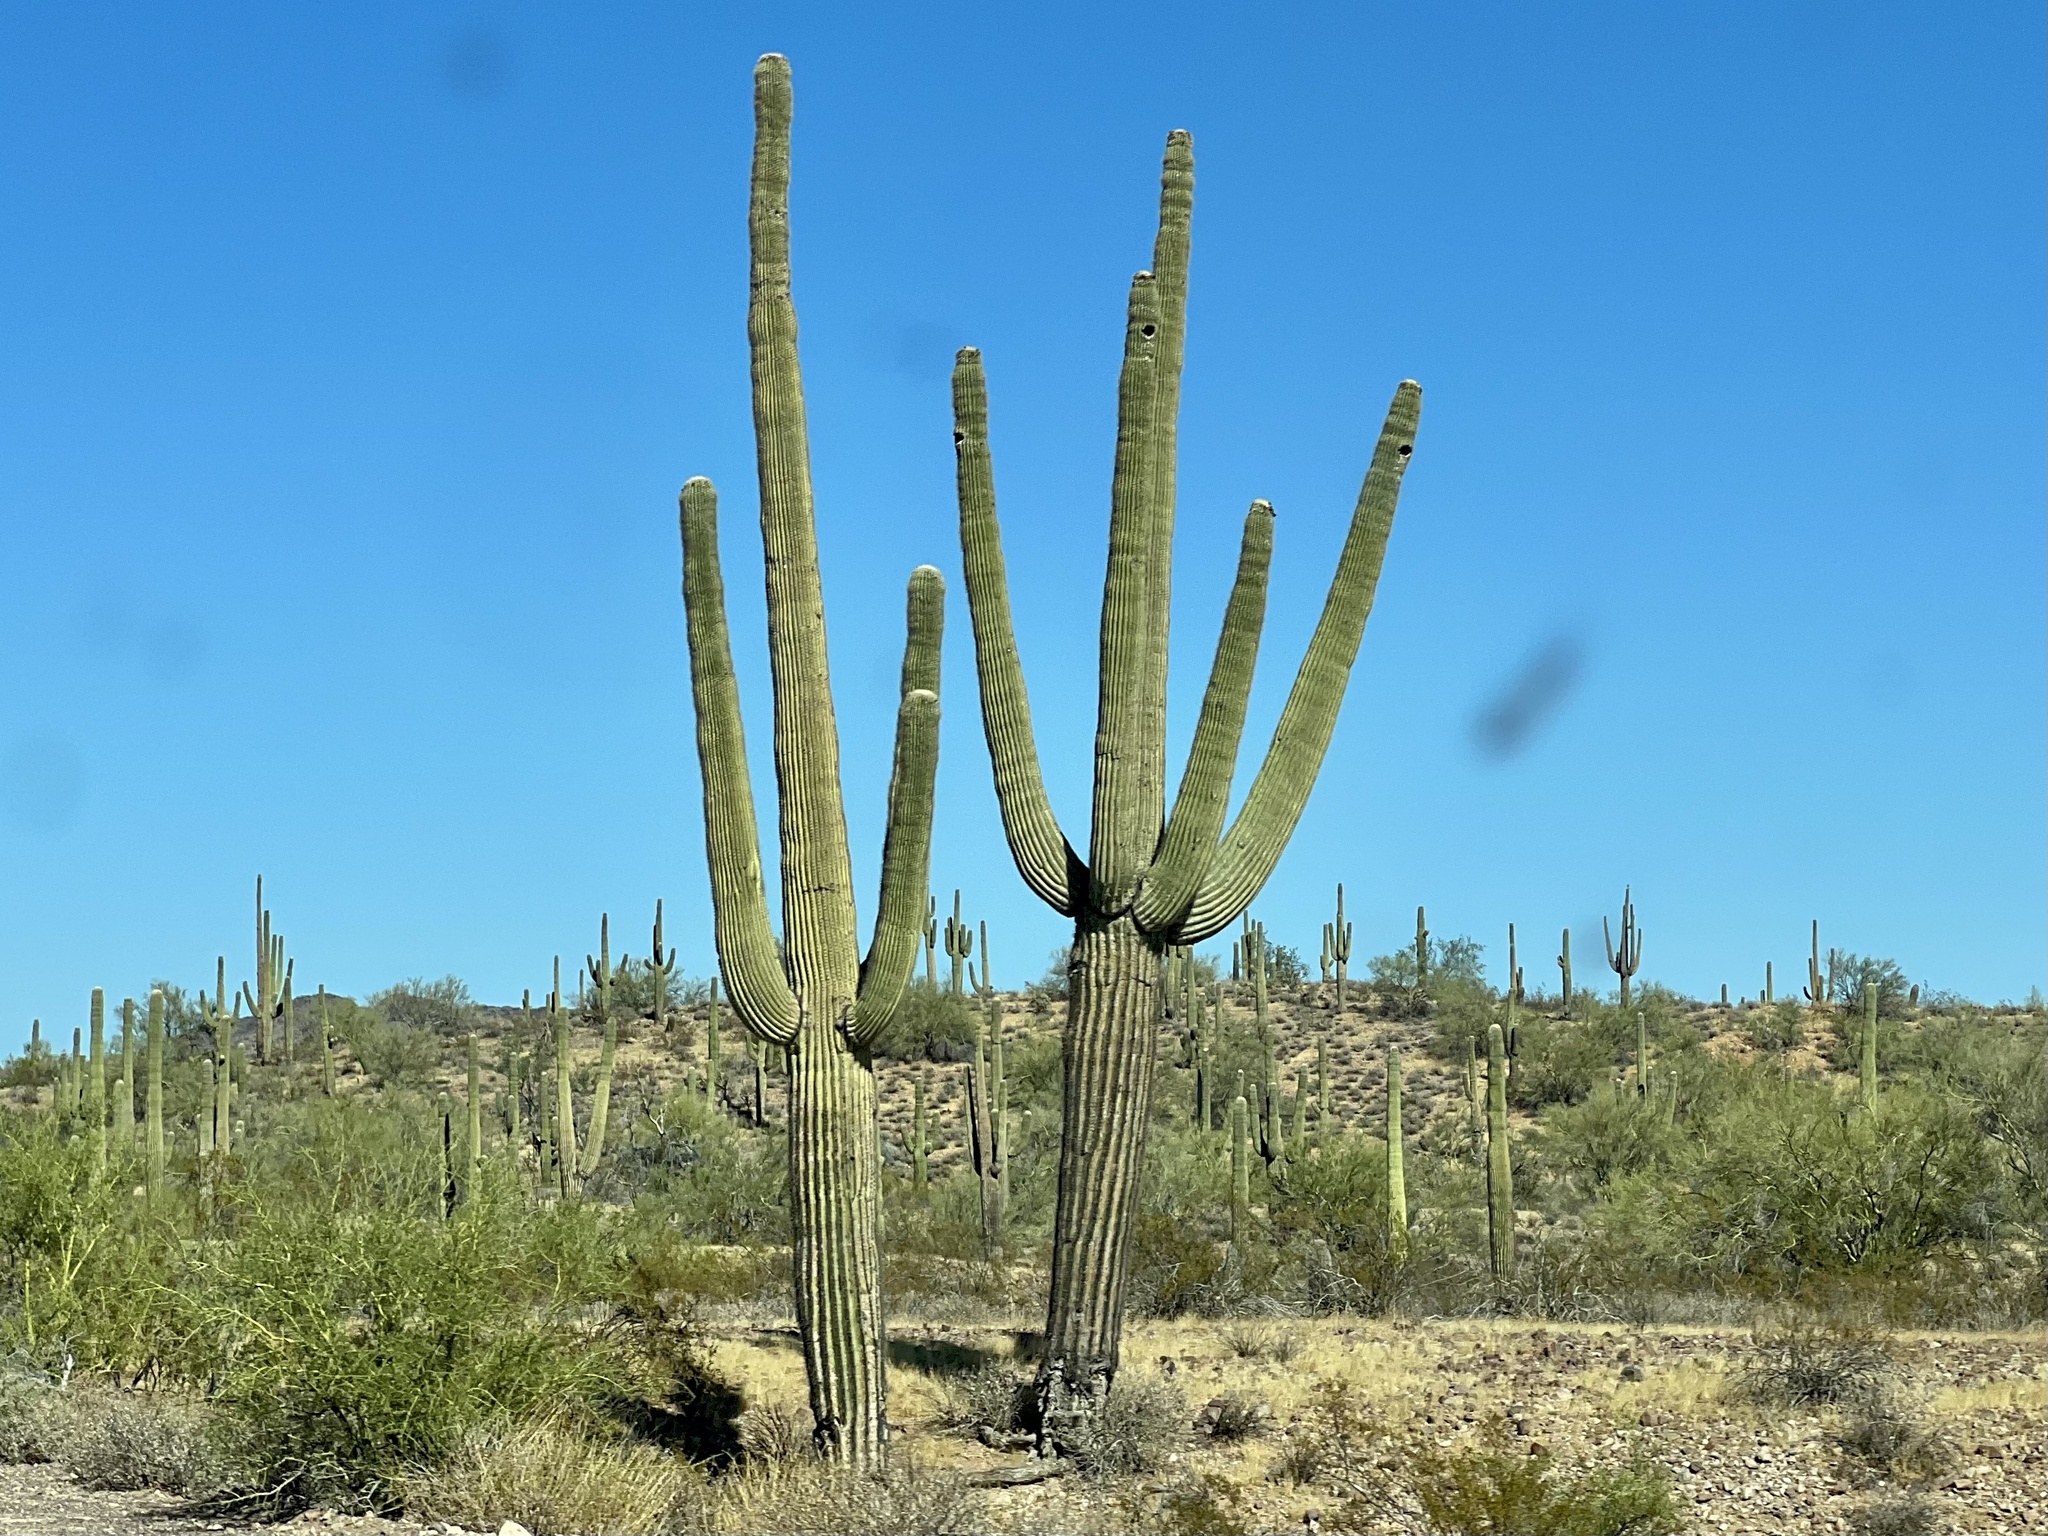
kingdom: Plantae
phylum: Tracheophyta
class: Magnoliopsida
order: Caryophyllales
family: Cactaceae
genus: Carnegiea
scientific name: Carnegiea gigantea
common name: Saguaro
